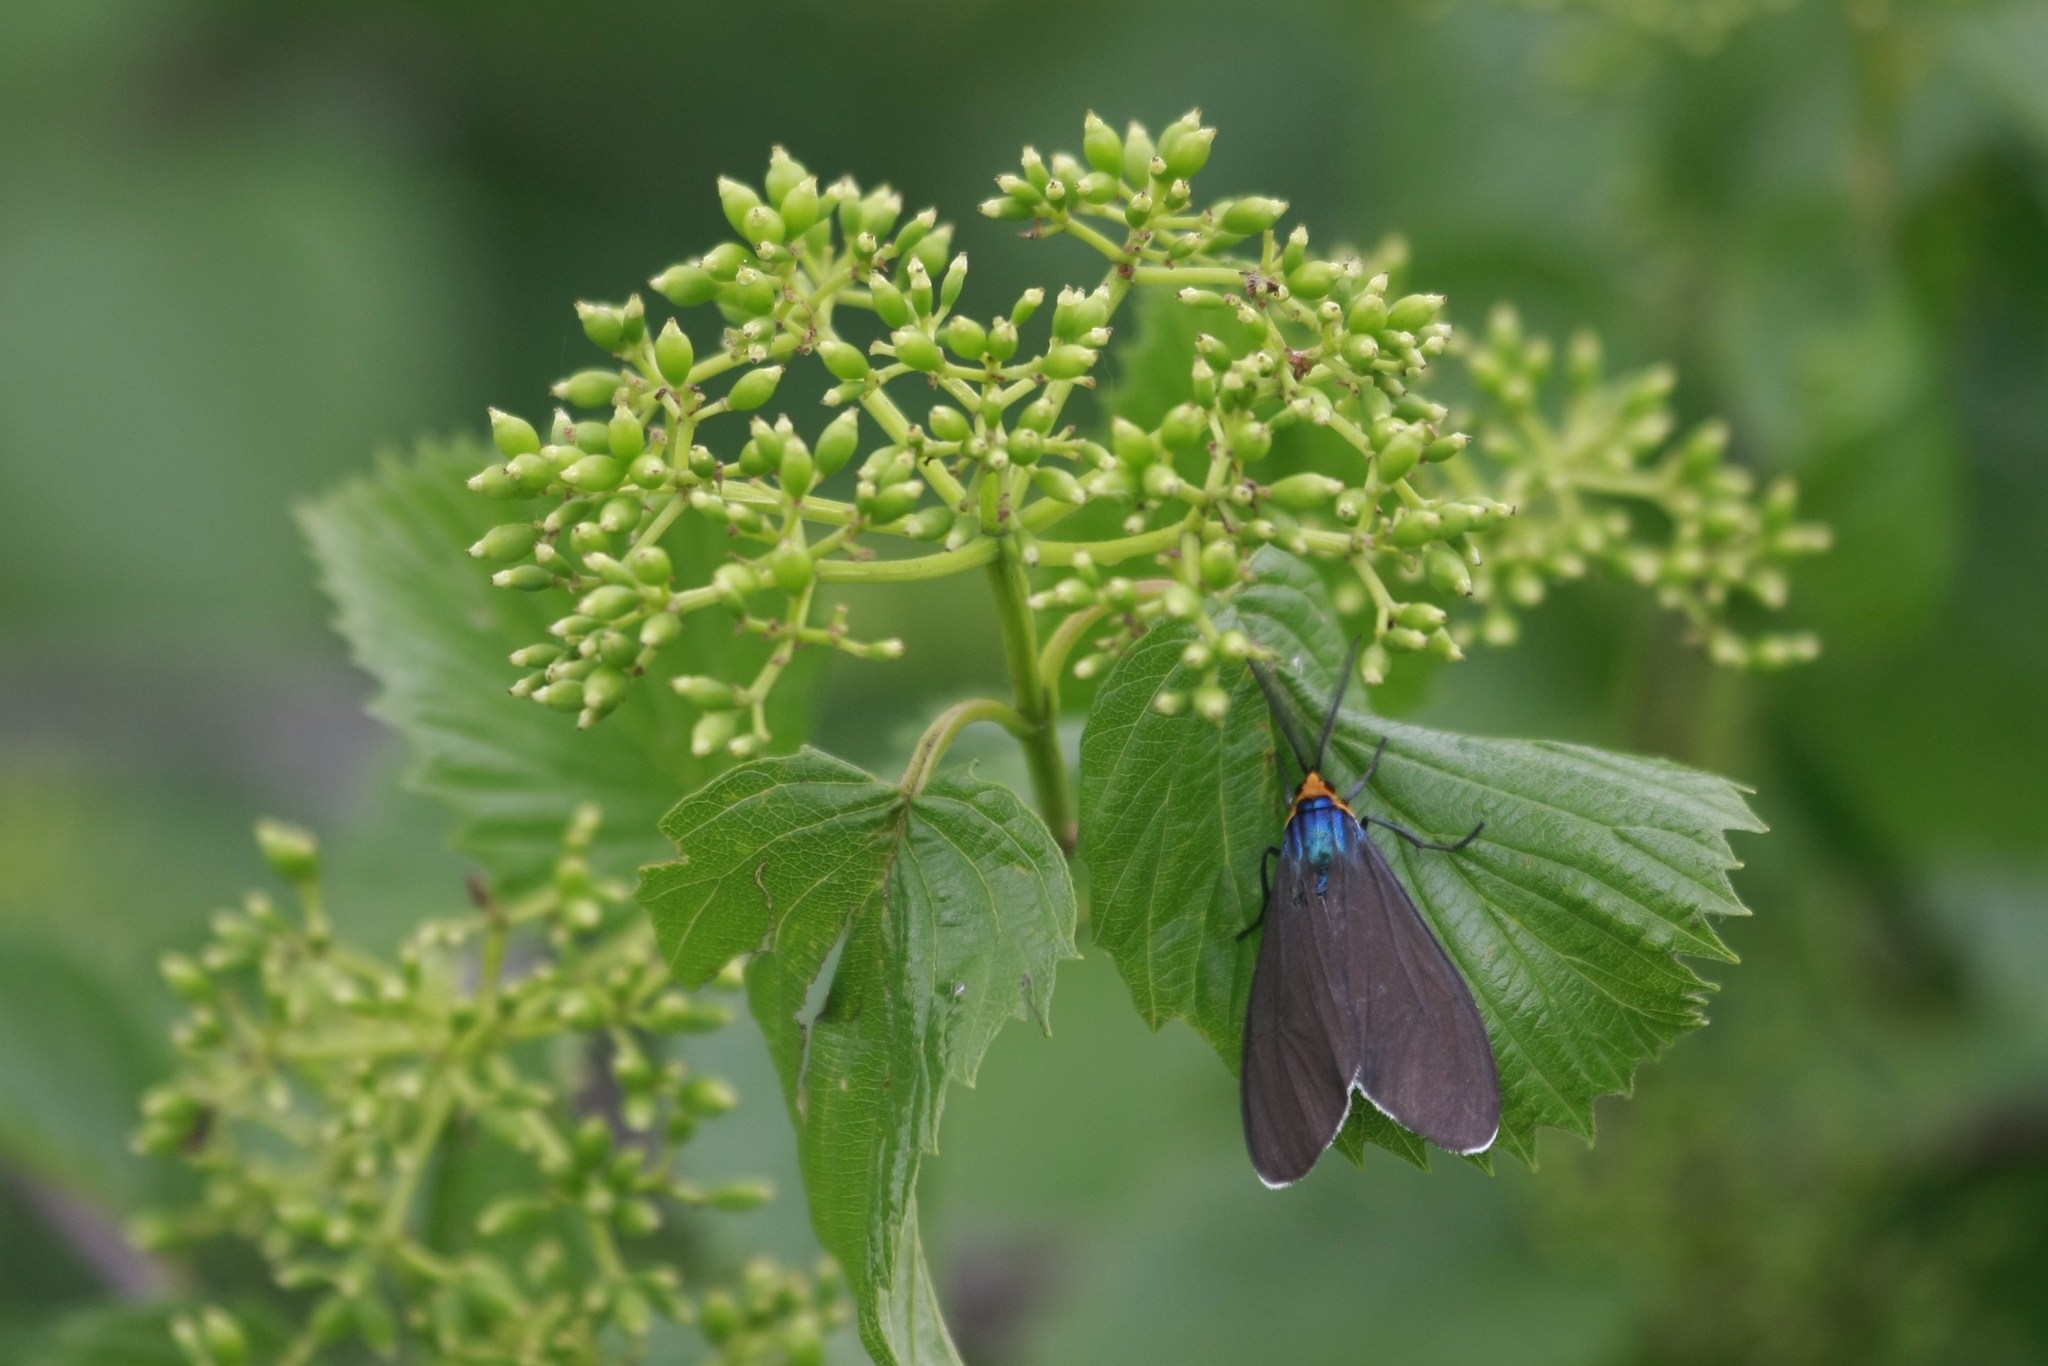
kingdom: Animalia
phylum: Arthropoda
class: Insecta
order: Lepidoptera
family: Erebidae
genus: Ctenucha
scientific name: Ctenucha virginica
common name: Virginia ctenucha moth
